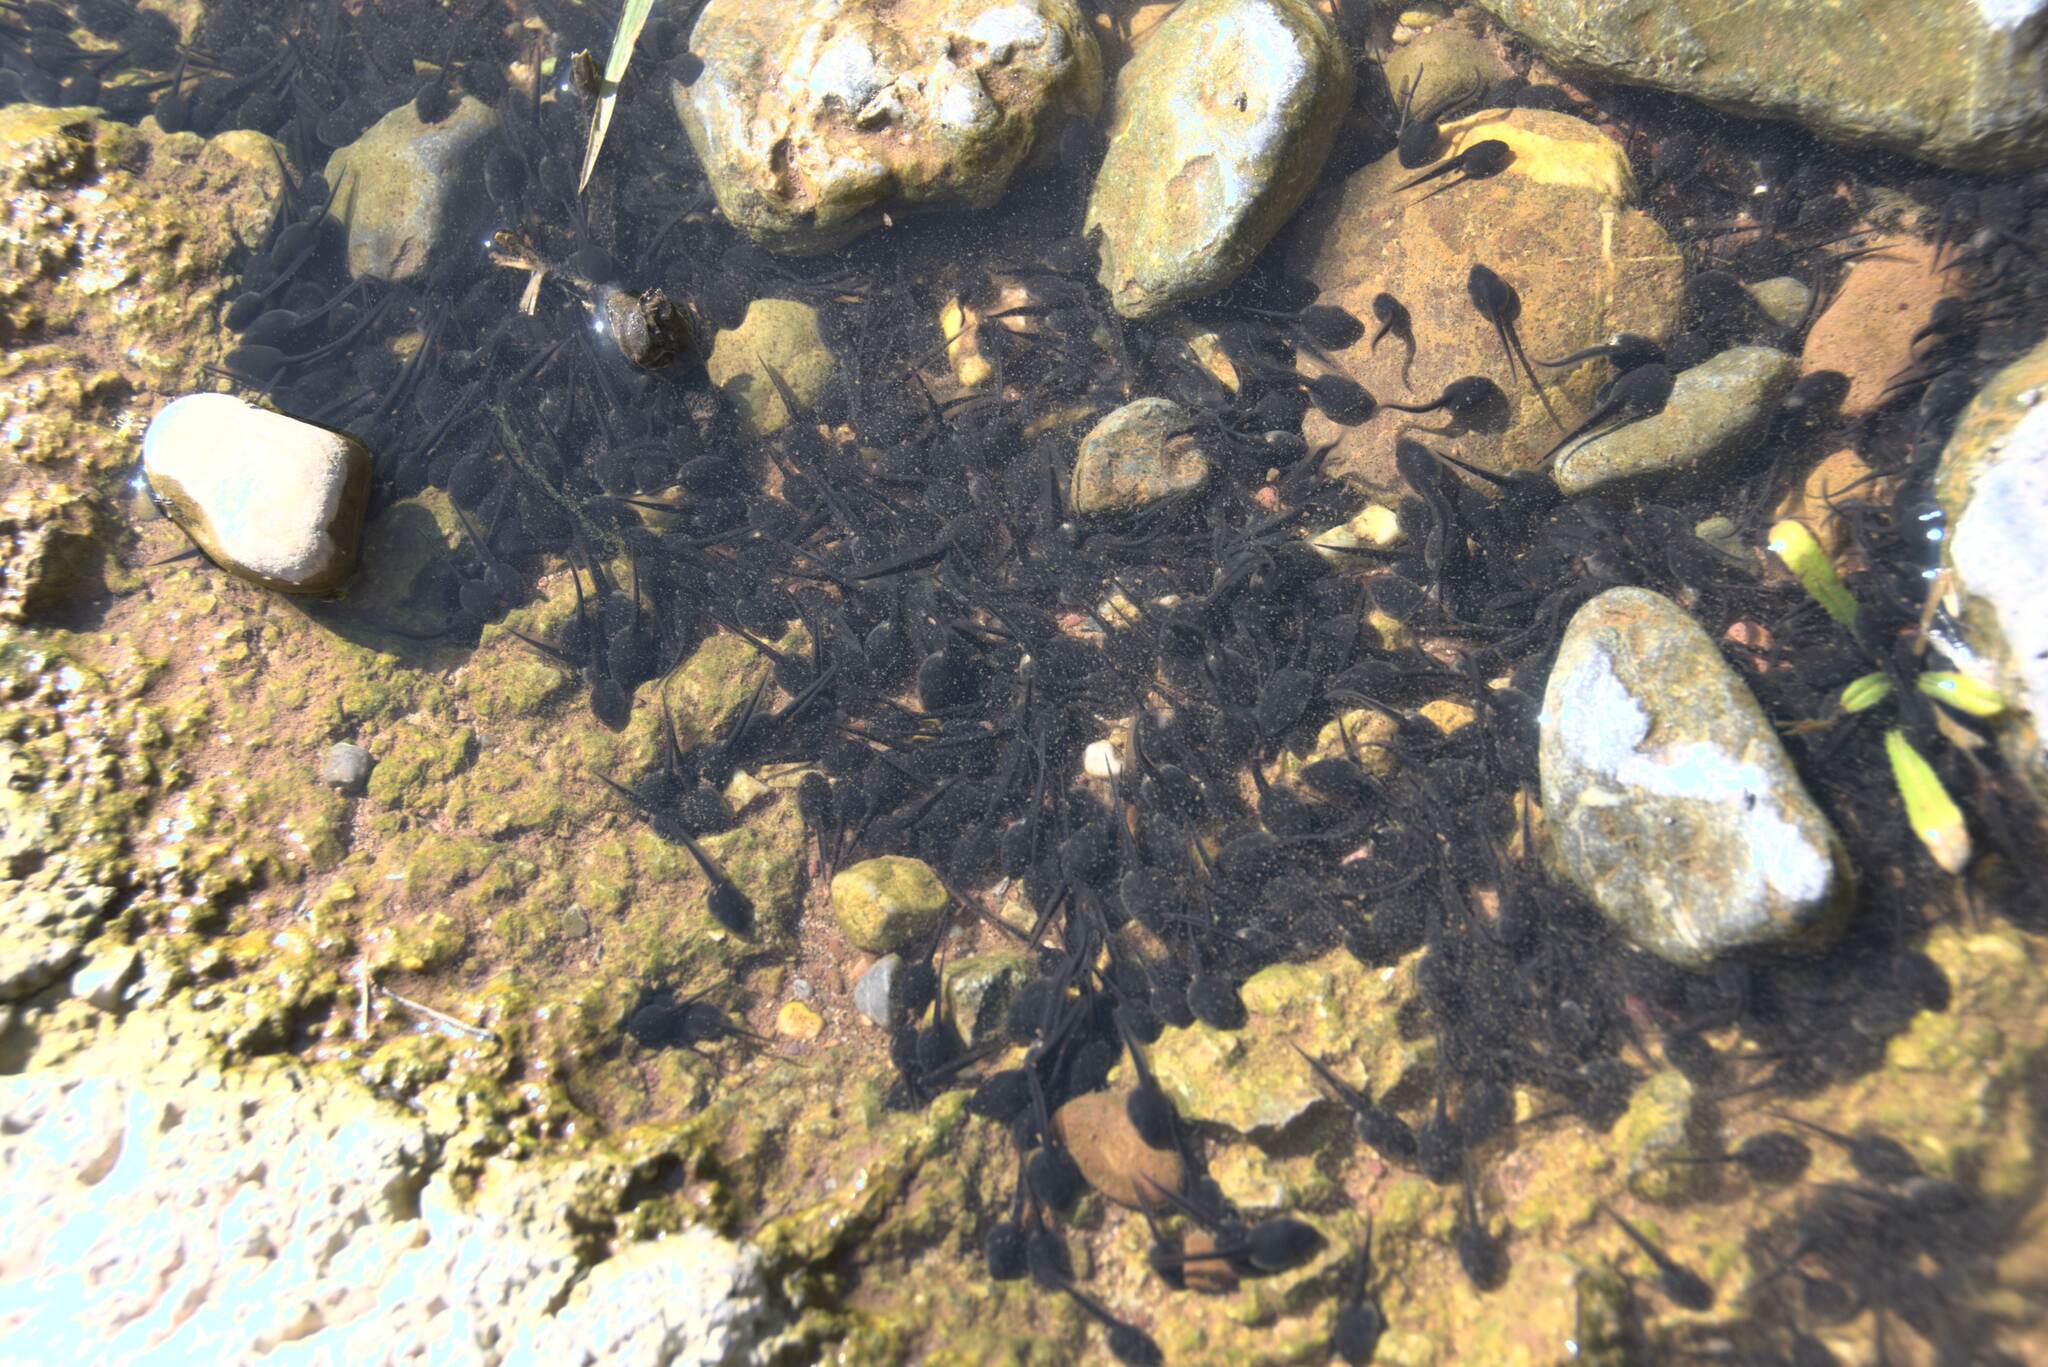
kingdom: Animalia
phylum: Chordata
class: Amphibia
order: Anura
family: Bufonidae
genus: Bufotes
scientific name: Bufotes viridis
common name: European green toad
